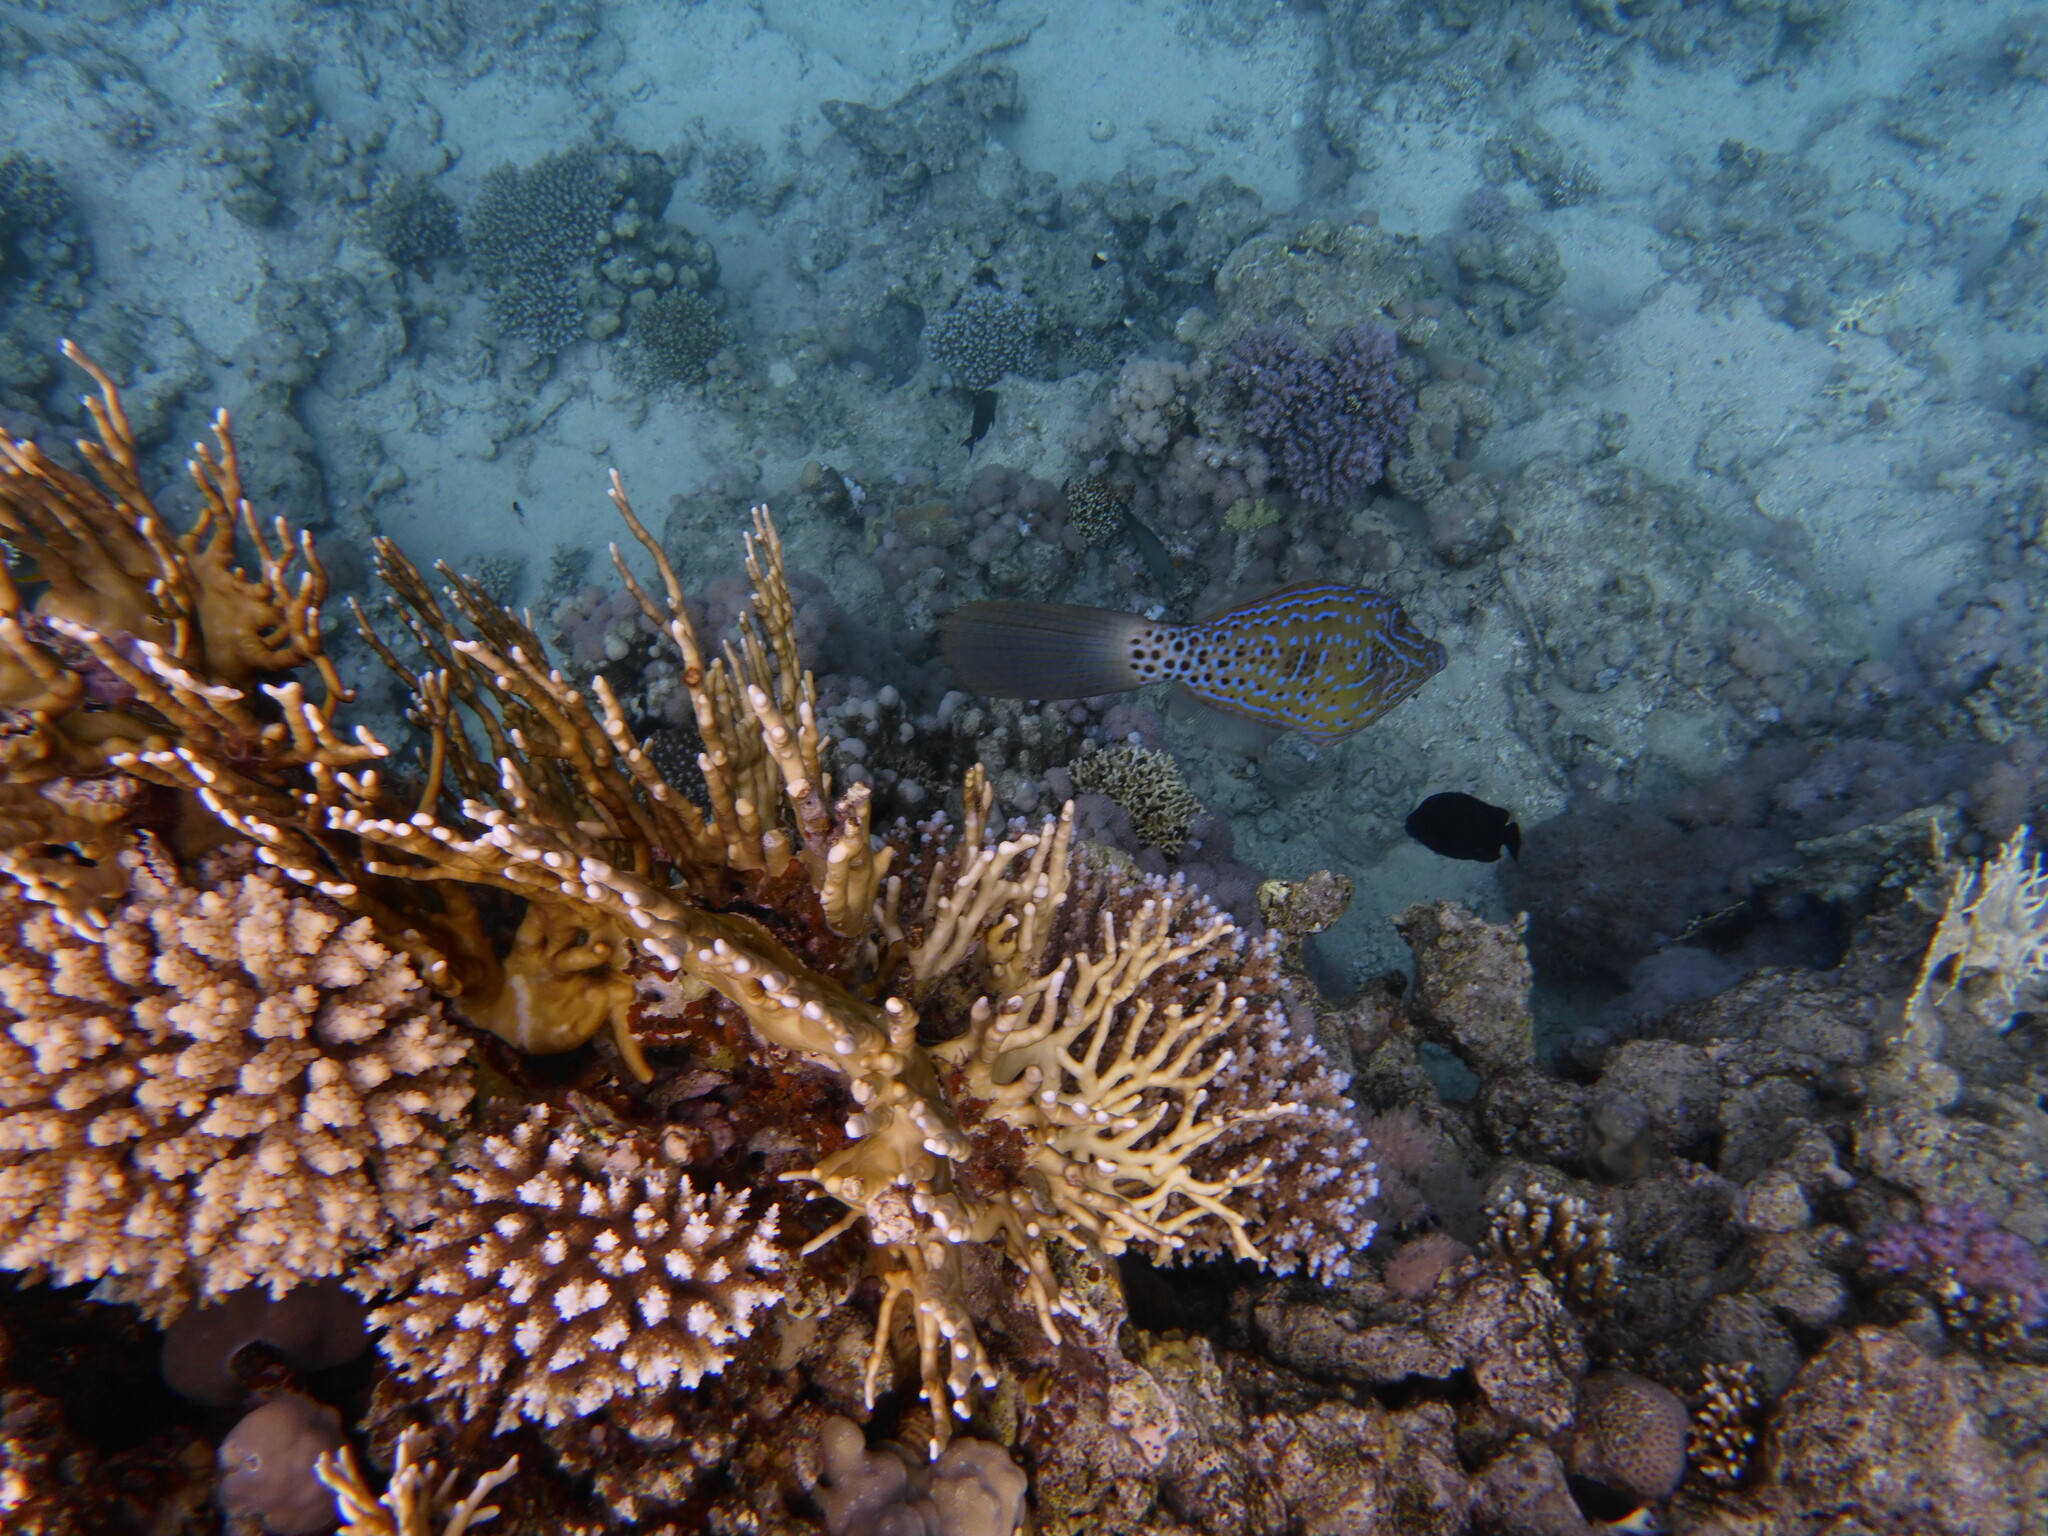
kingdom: Animalia
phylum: Chordata
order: Tetraodontiformes
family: Monacanthidae
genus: Aluterus
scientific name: Aluterus scriptus
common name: Scribbled leatherjacket filefish
